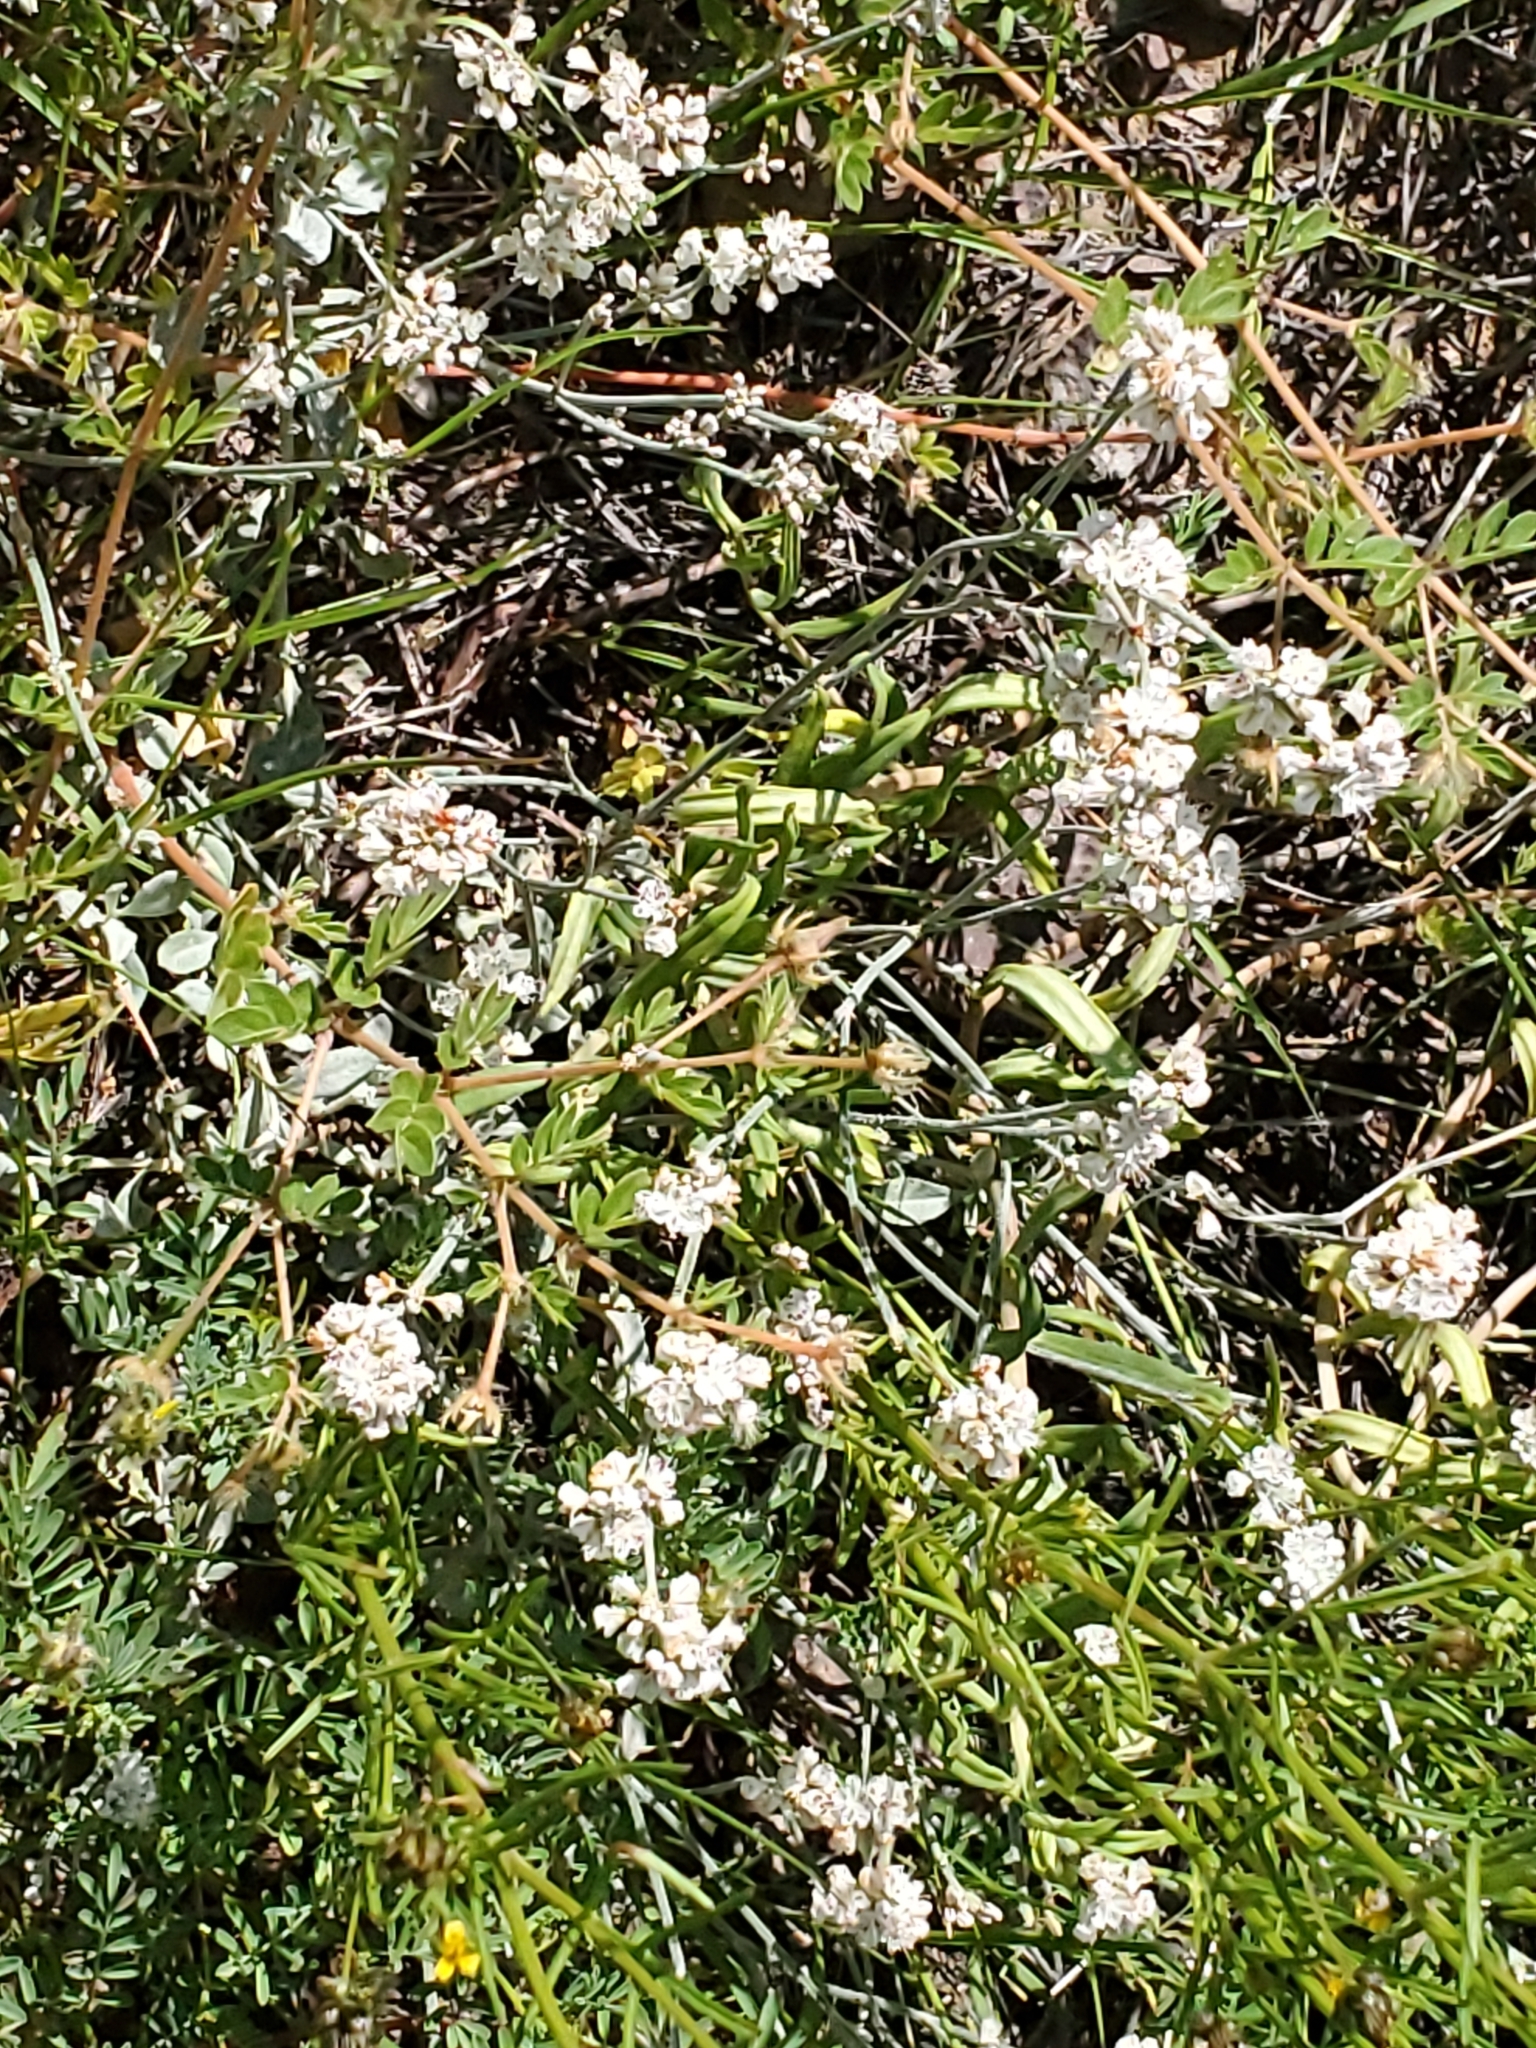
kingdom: Plantae
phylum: Tracheophyta
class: Magnoliopsida
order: Caryophyllales
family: Polygonaceae
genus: Eriogonum
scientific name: Eriogonum wrightii
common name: Bastard-sage
